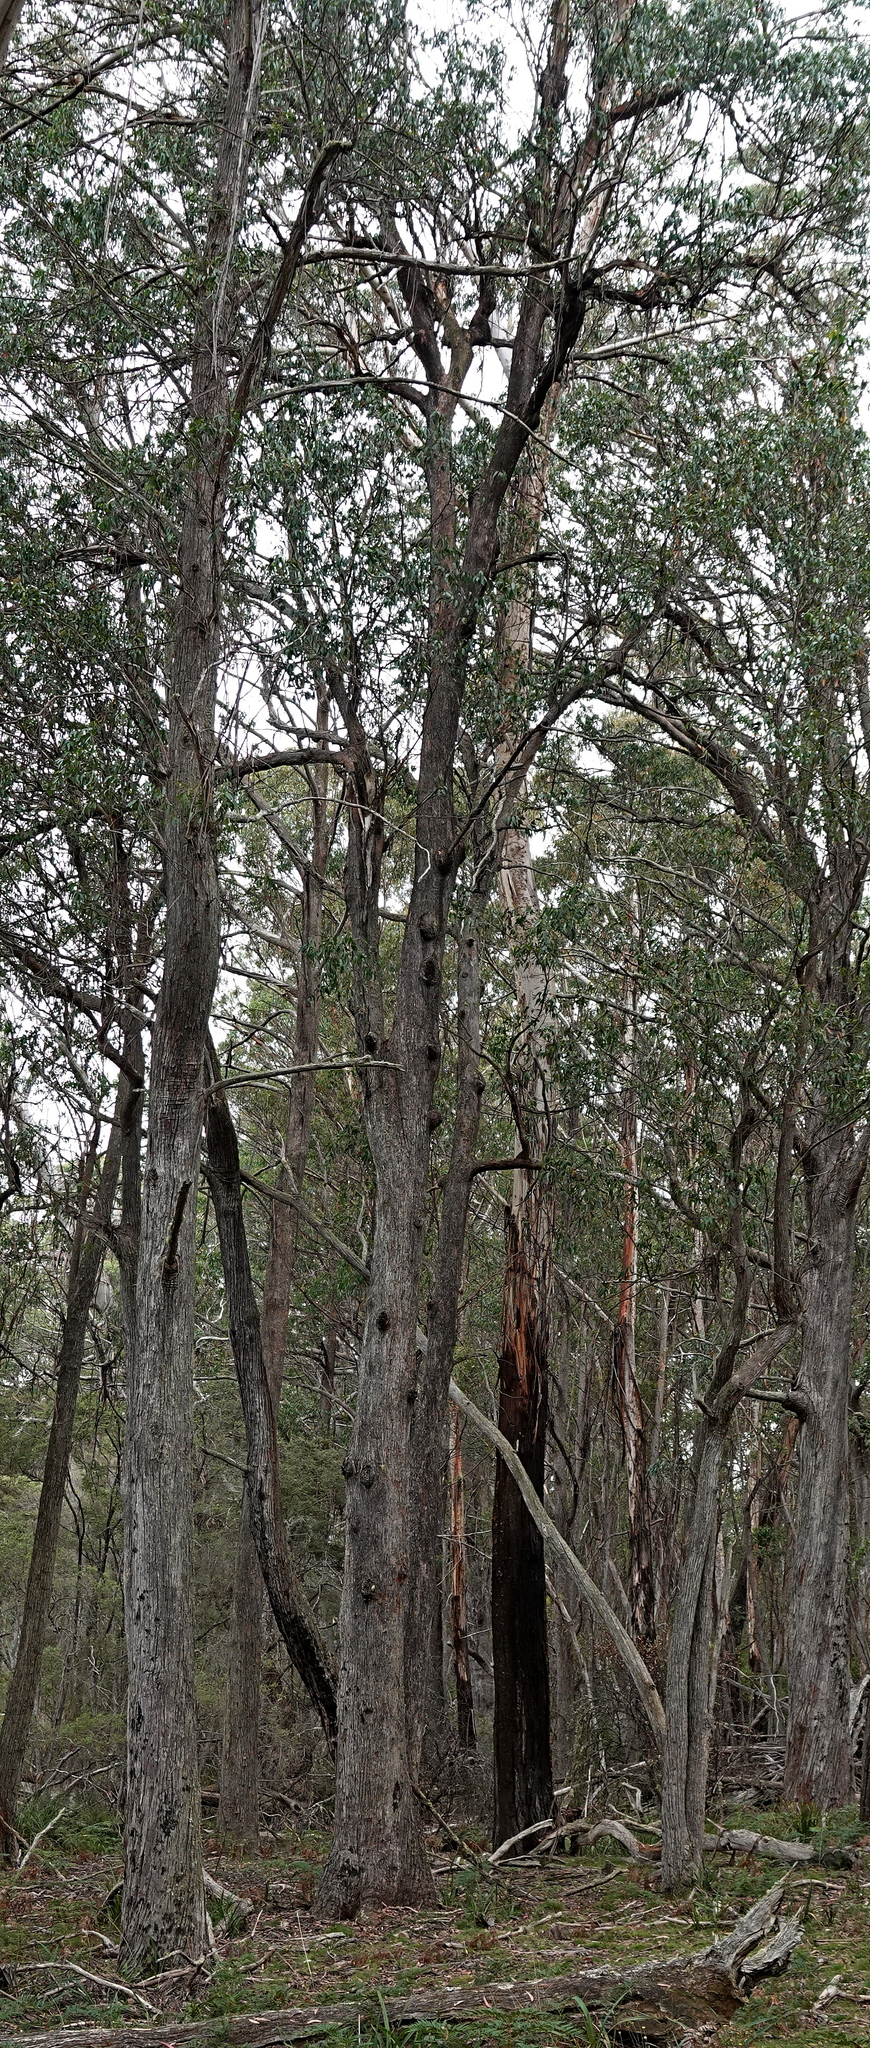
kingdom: Plantae
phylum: Tracheophyta
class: Magnoliopsida
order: Myrtales
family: Myrtaceae
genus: Eucalyptus
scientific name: Eucalyptus fastigata
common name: Brown barrel
